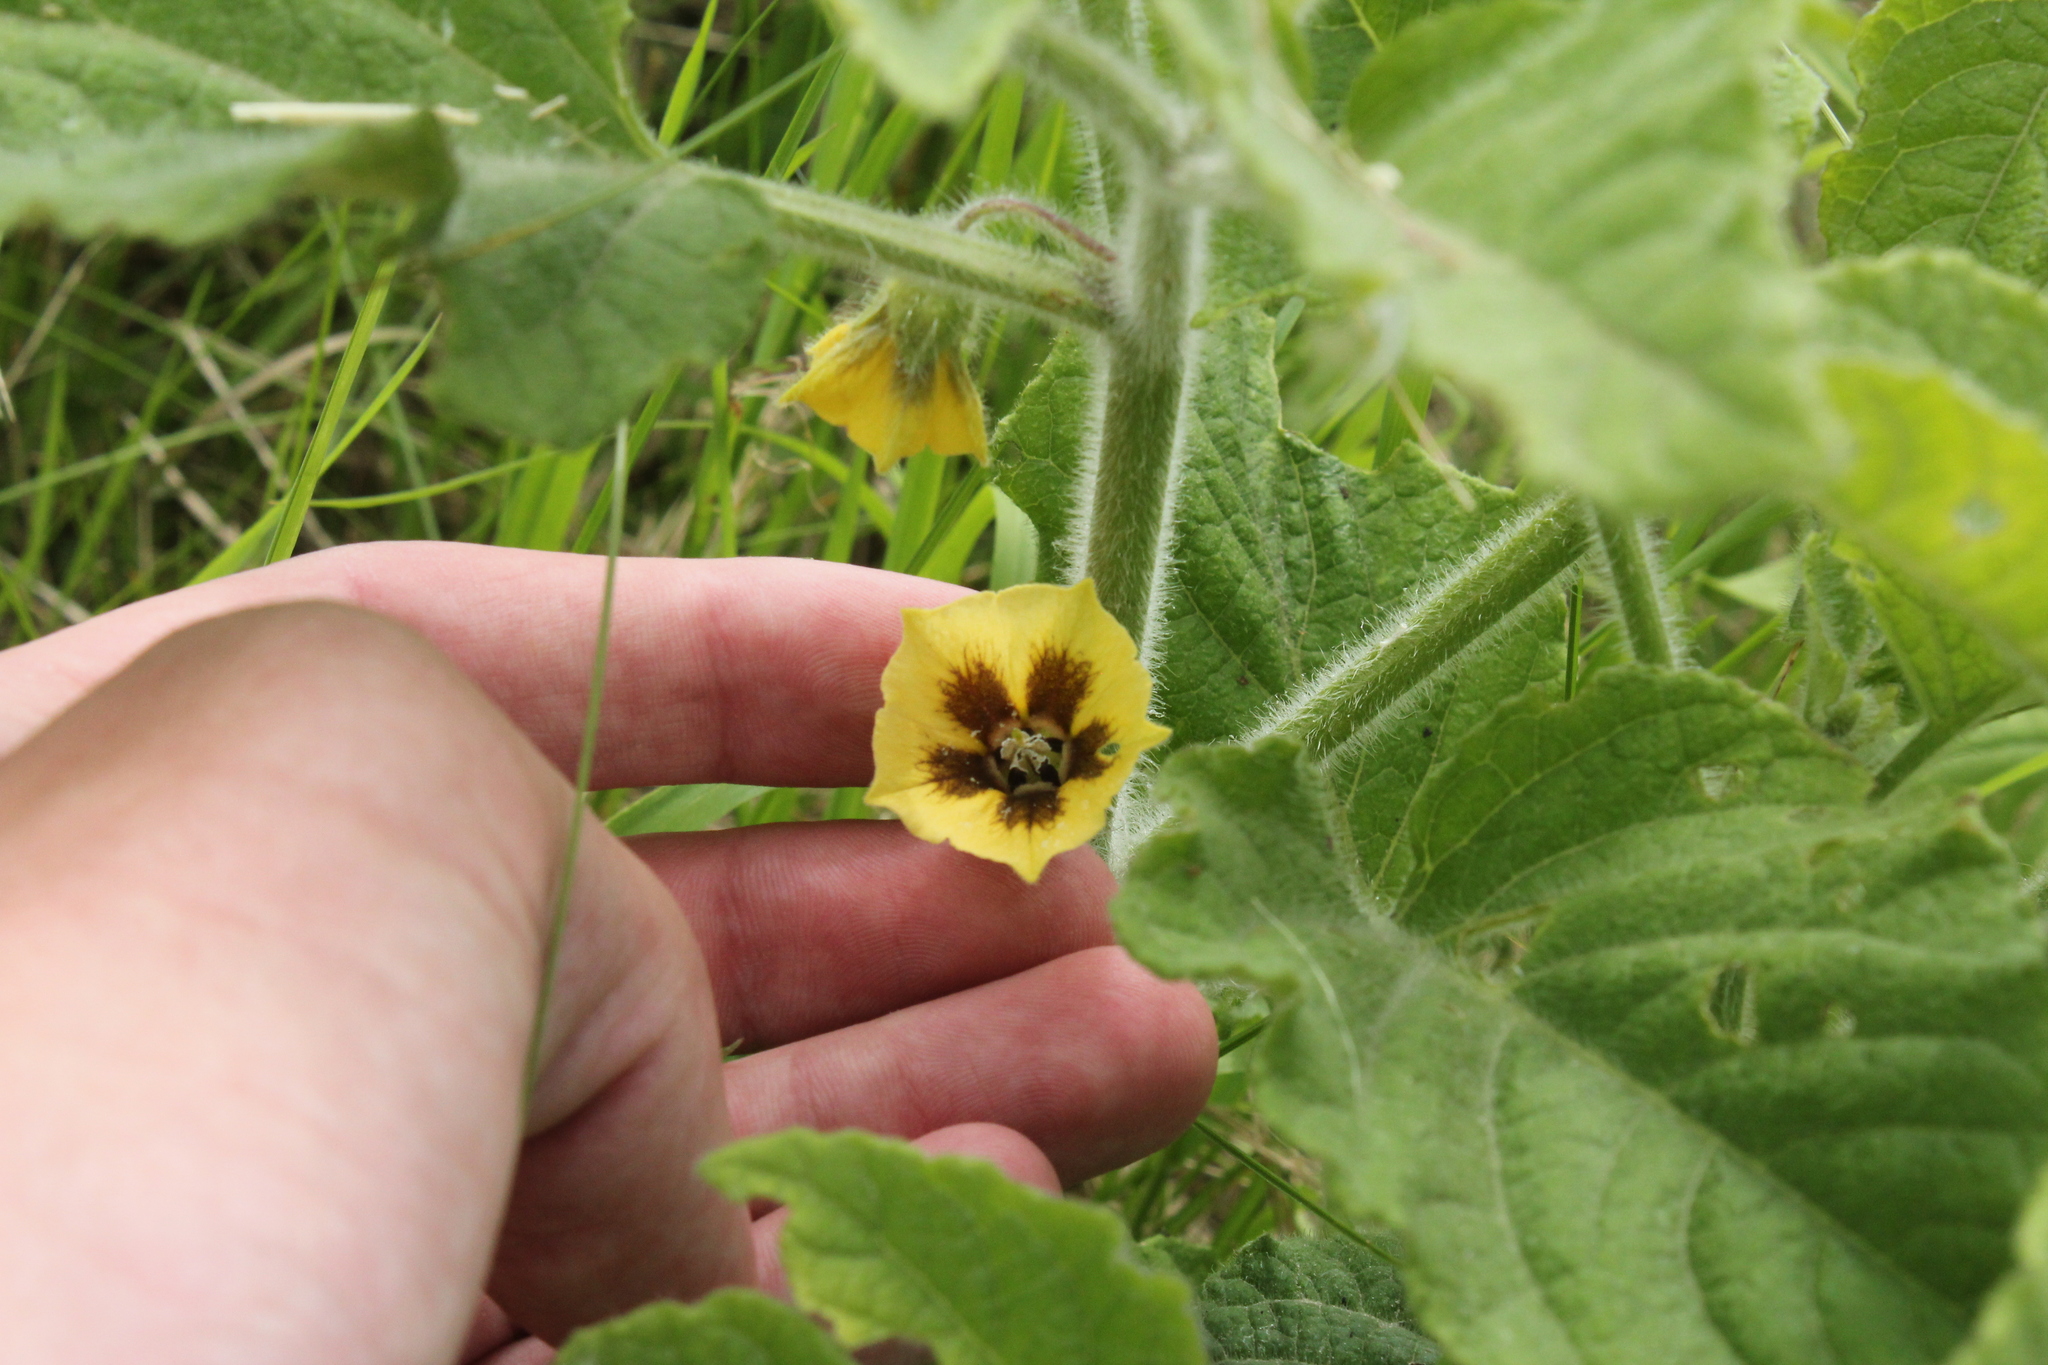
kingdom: Plantae
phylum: Tracheophyta
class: Magnoliopsida
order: Solanales
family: Solanaceae
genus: Physalis
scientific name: Physalis heterophylla
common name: Clammy ground-cherry
